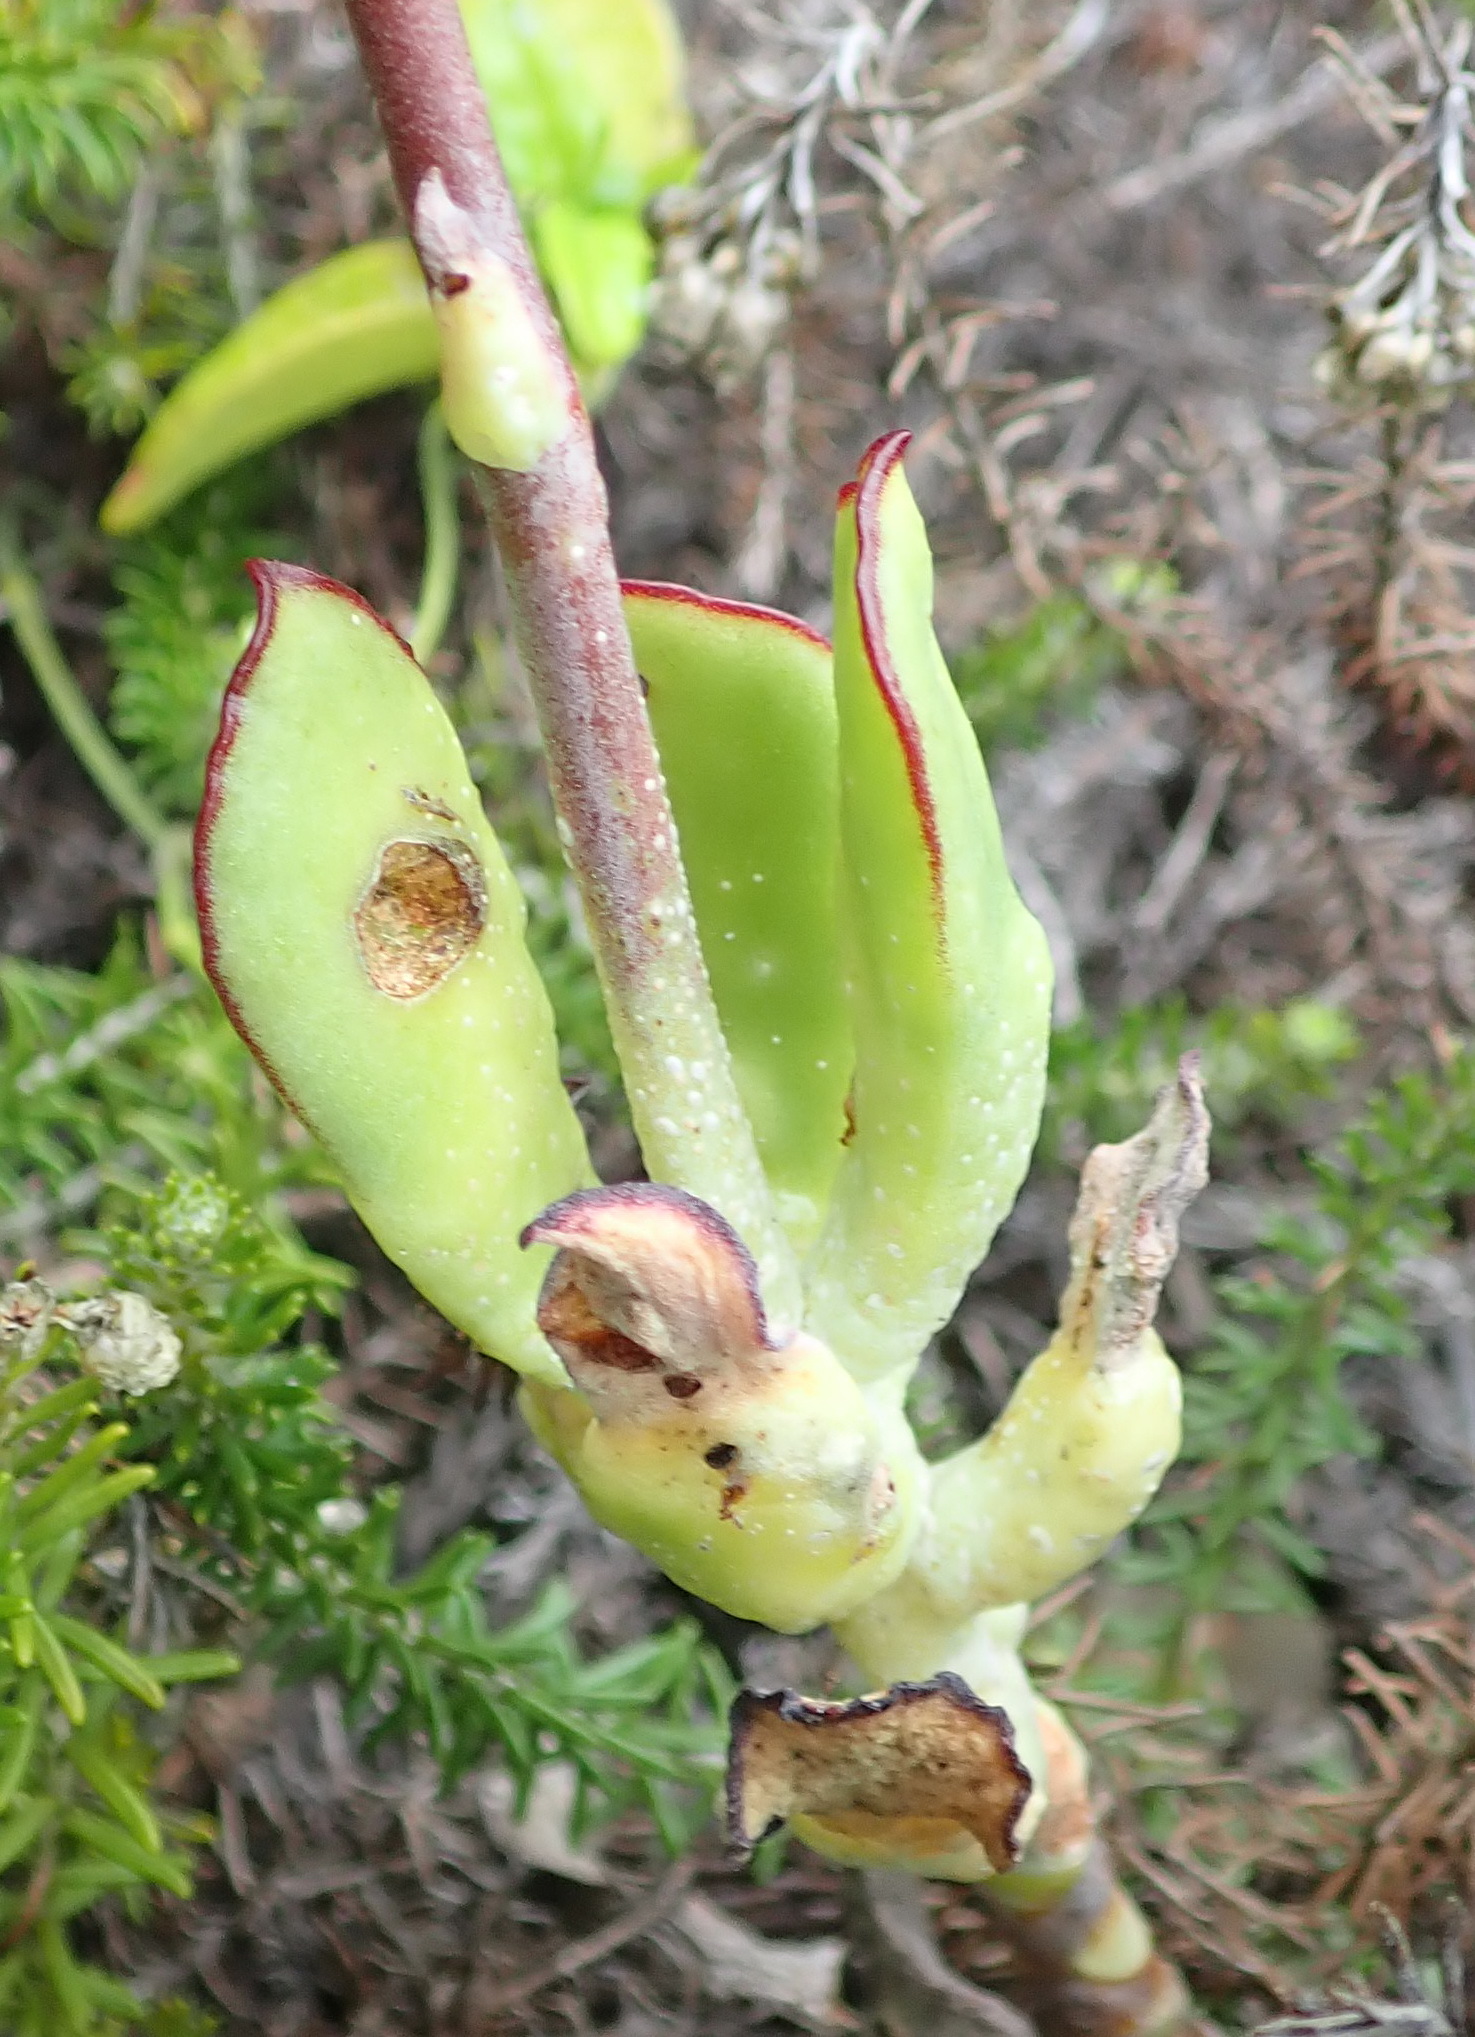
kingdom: Plantae
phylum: Tracheophyta
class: Magnoliopsida
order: Saxifragales
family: Crassulaceae
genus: Cotyledon
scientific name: Cotyledon orbiculata
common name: Pig's ear
